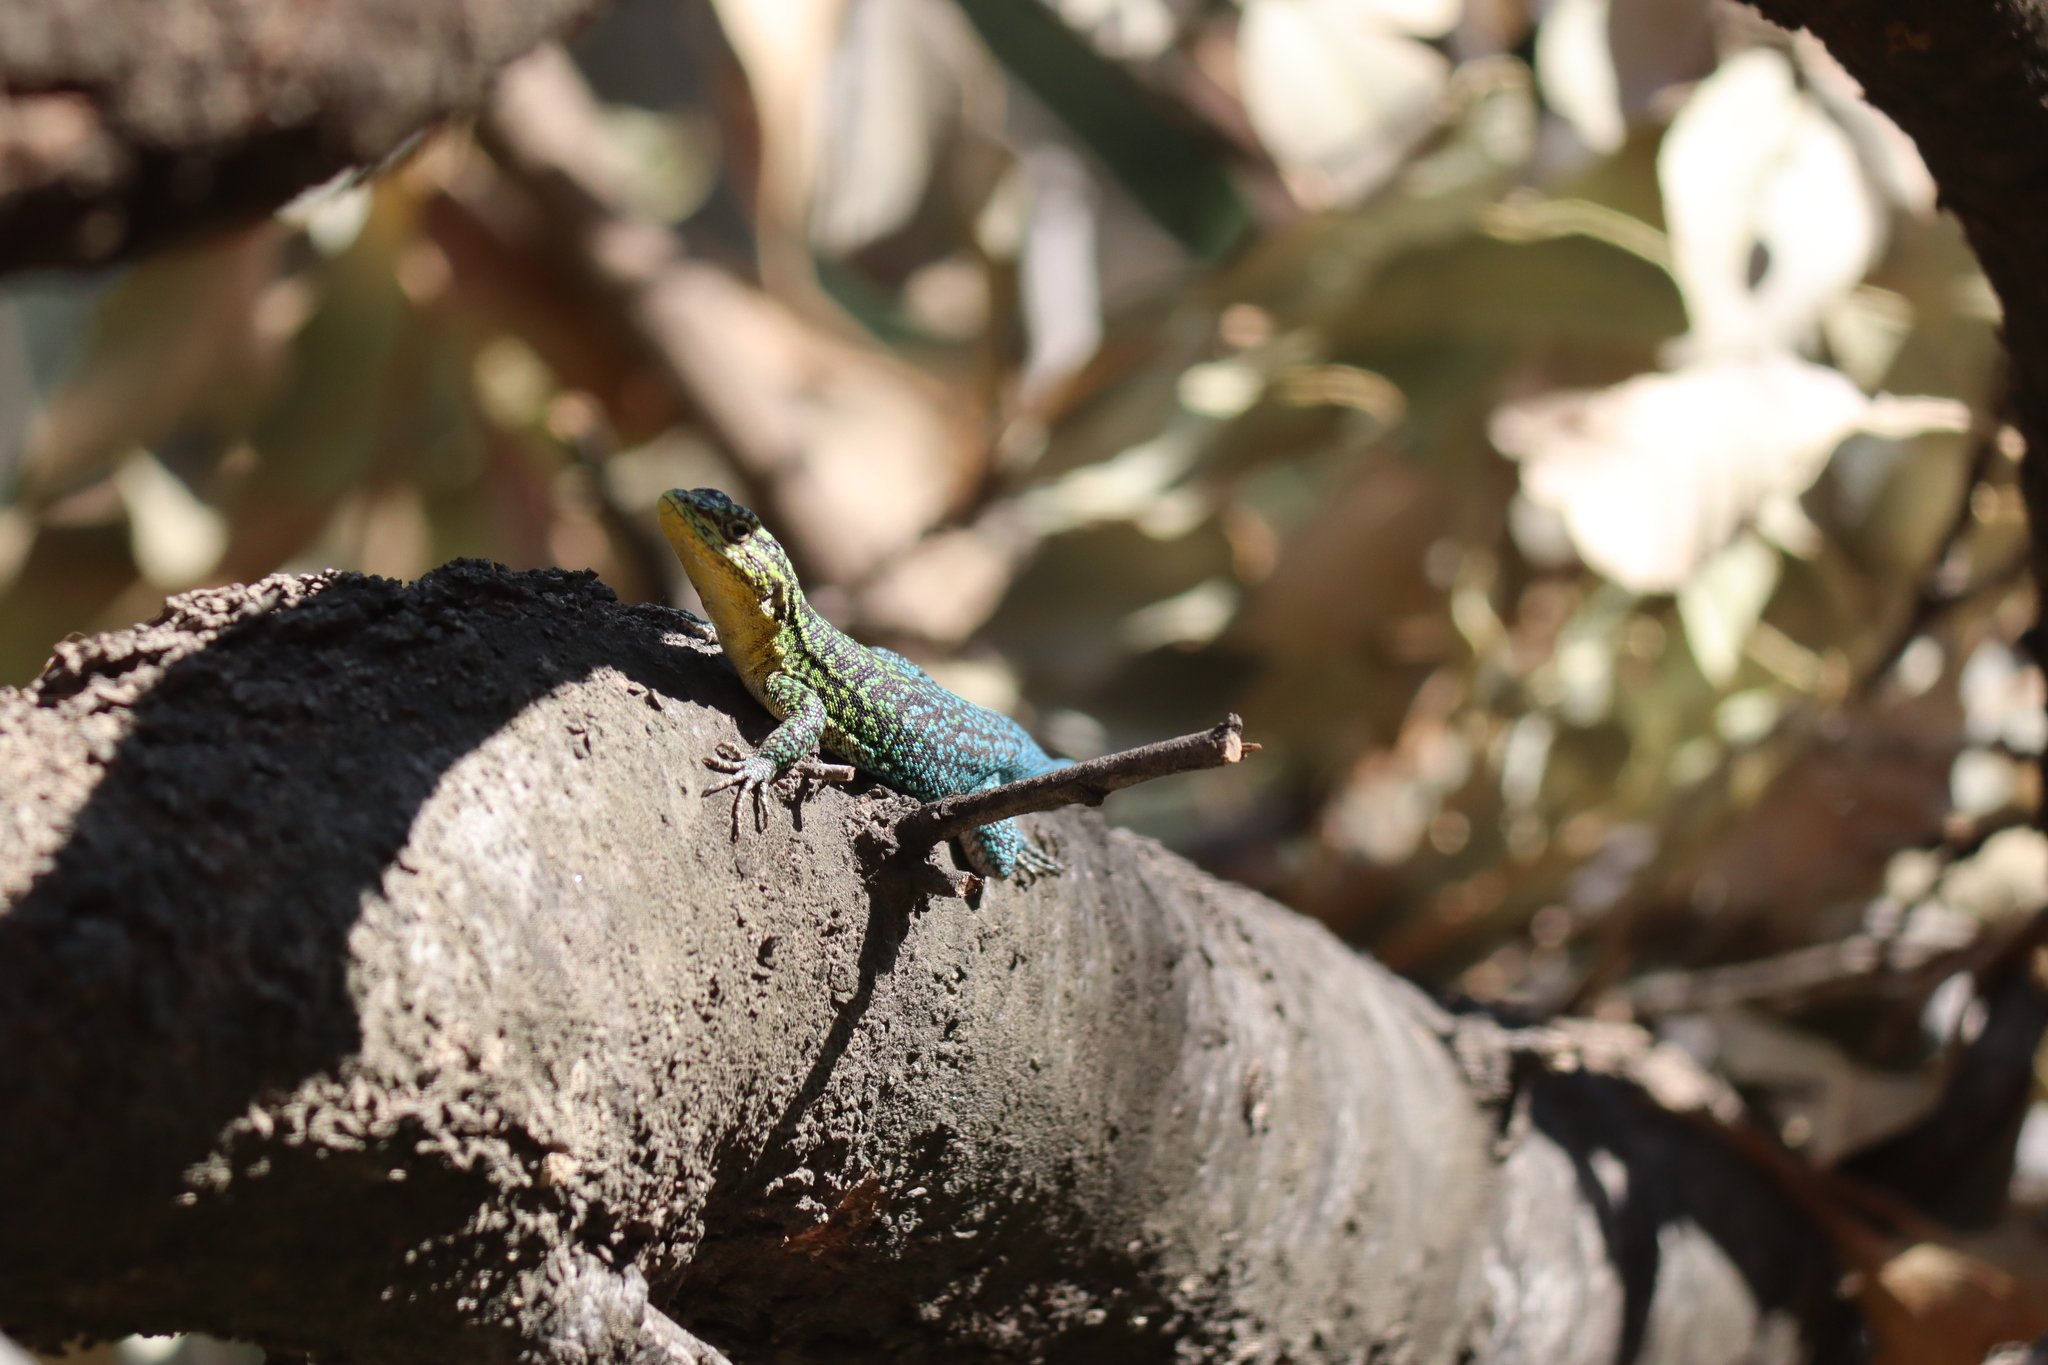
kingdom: Animalia
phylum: Chordata
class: Squamata
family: Liolaemidae
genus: Liolaemus
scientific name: Liolaemus tenuis
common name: Thin tree iguana
